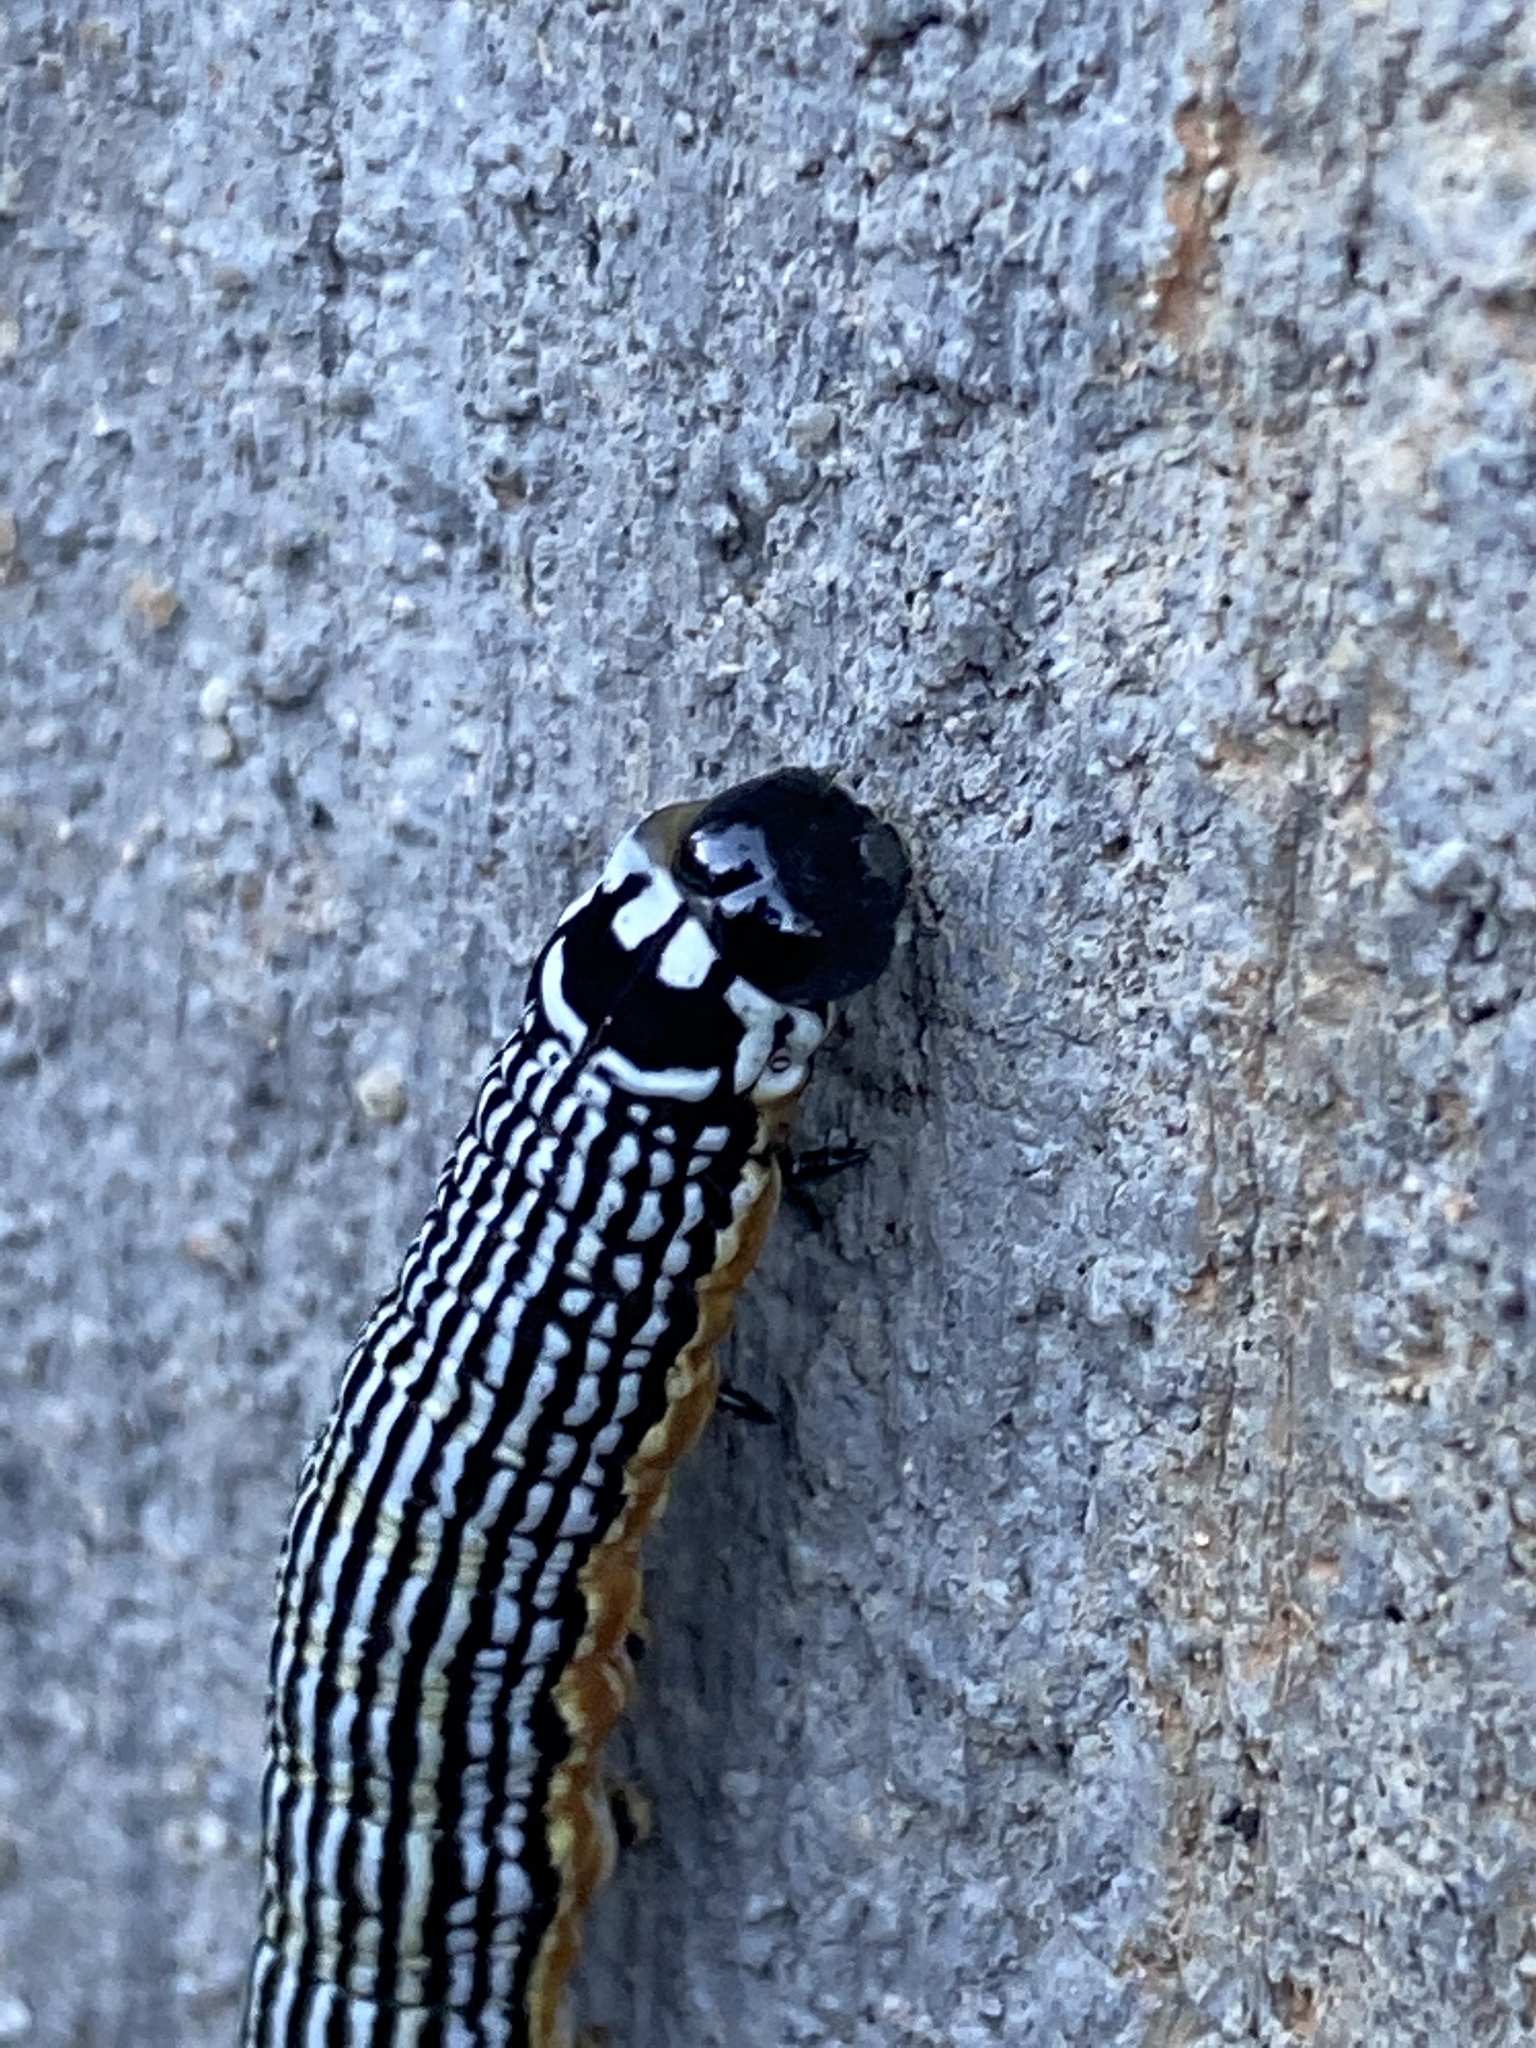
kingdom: Animalia
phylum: Arthropoda
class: Insecta
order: Lepidoptera
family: Noctuidae
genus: Phosphila
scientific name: Phosphila turbulenta
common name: Turbulent phosphila moth
